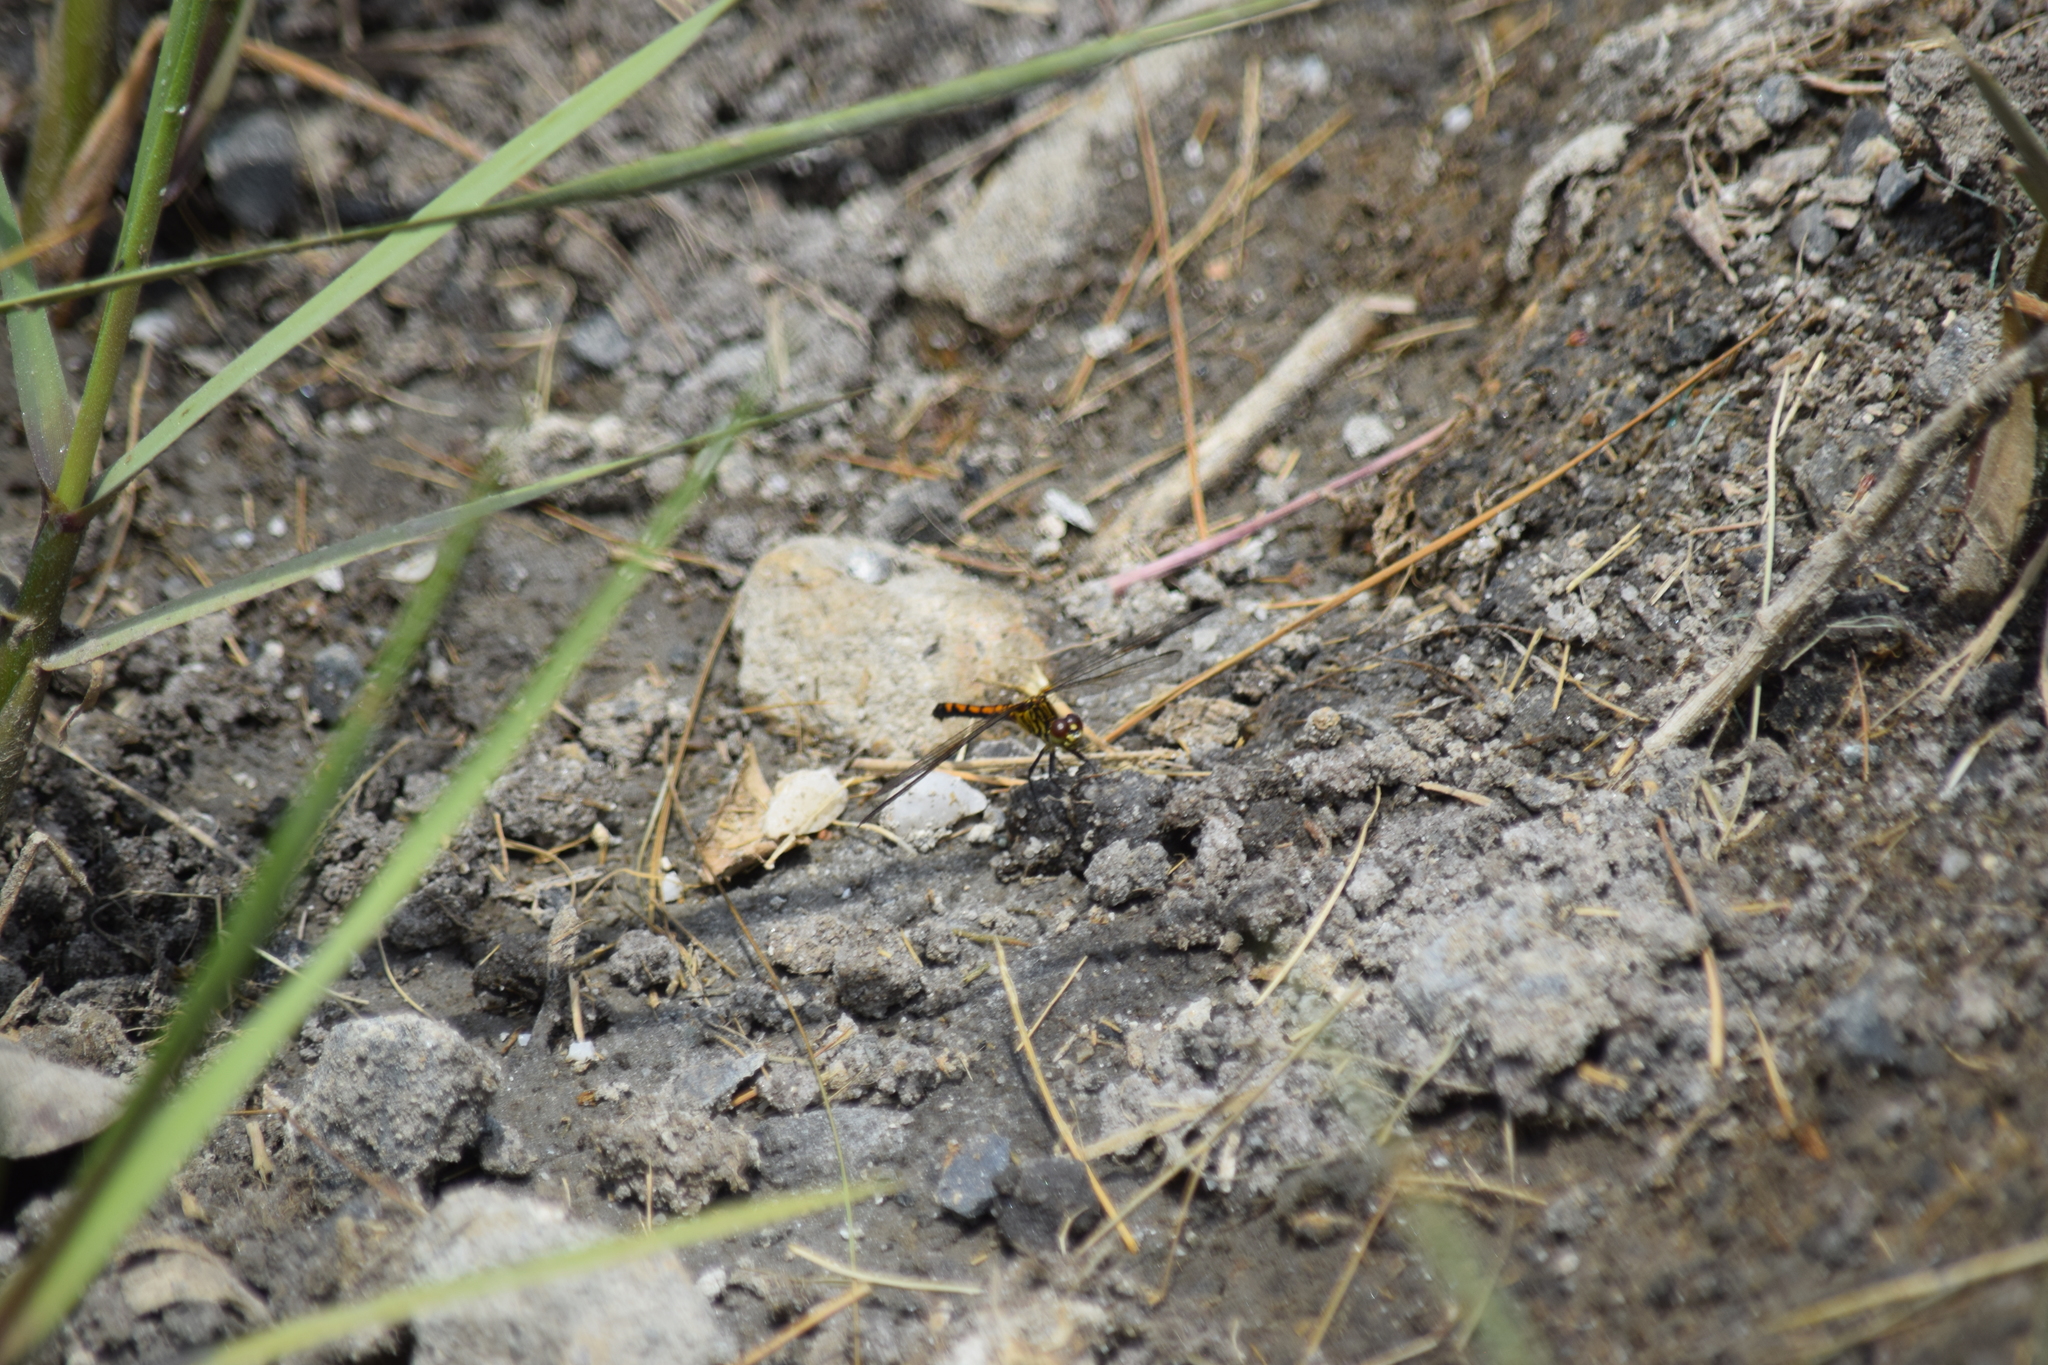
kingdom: Animalia
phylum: Arthropoda
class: Insecta
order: Odonata
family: Libellulidae
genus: Erythrodiplax
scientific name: Erythrodiplax berenice
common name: Seaside dragonlet
